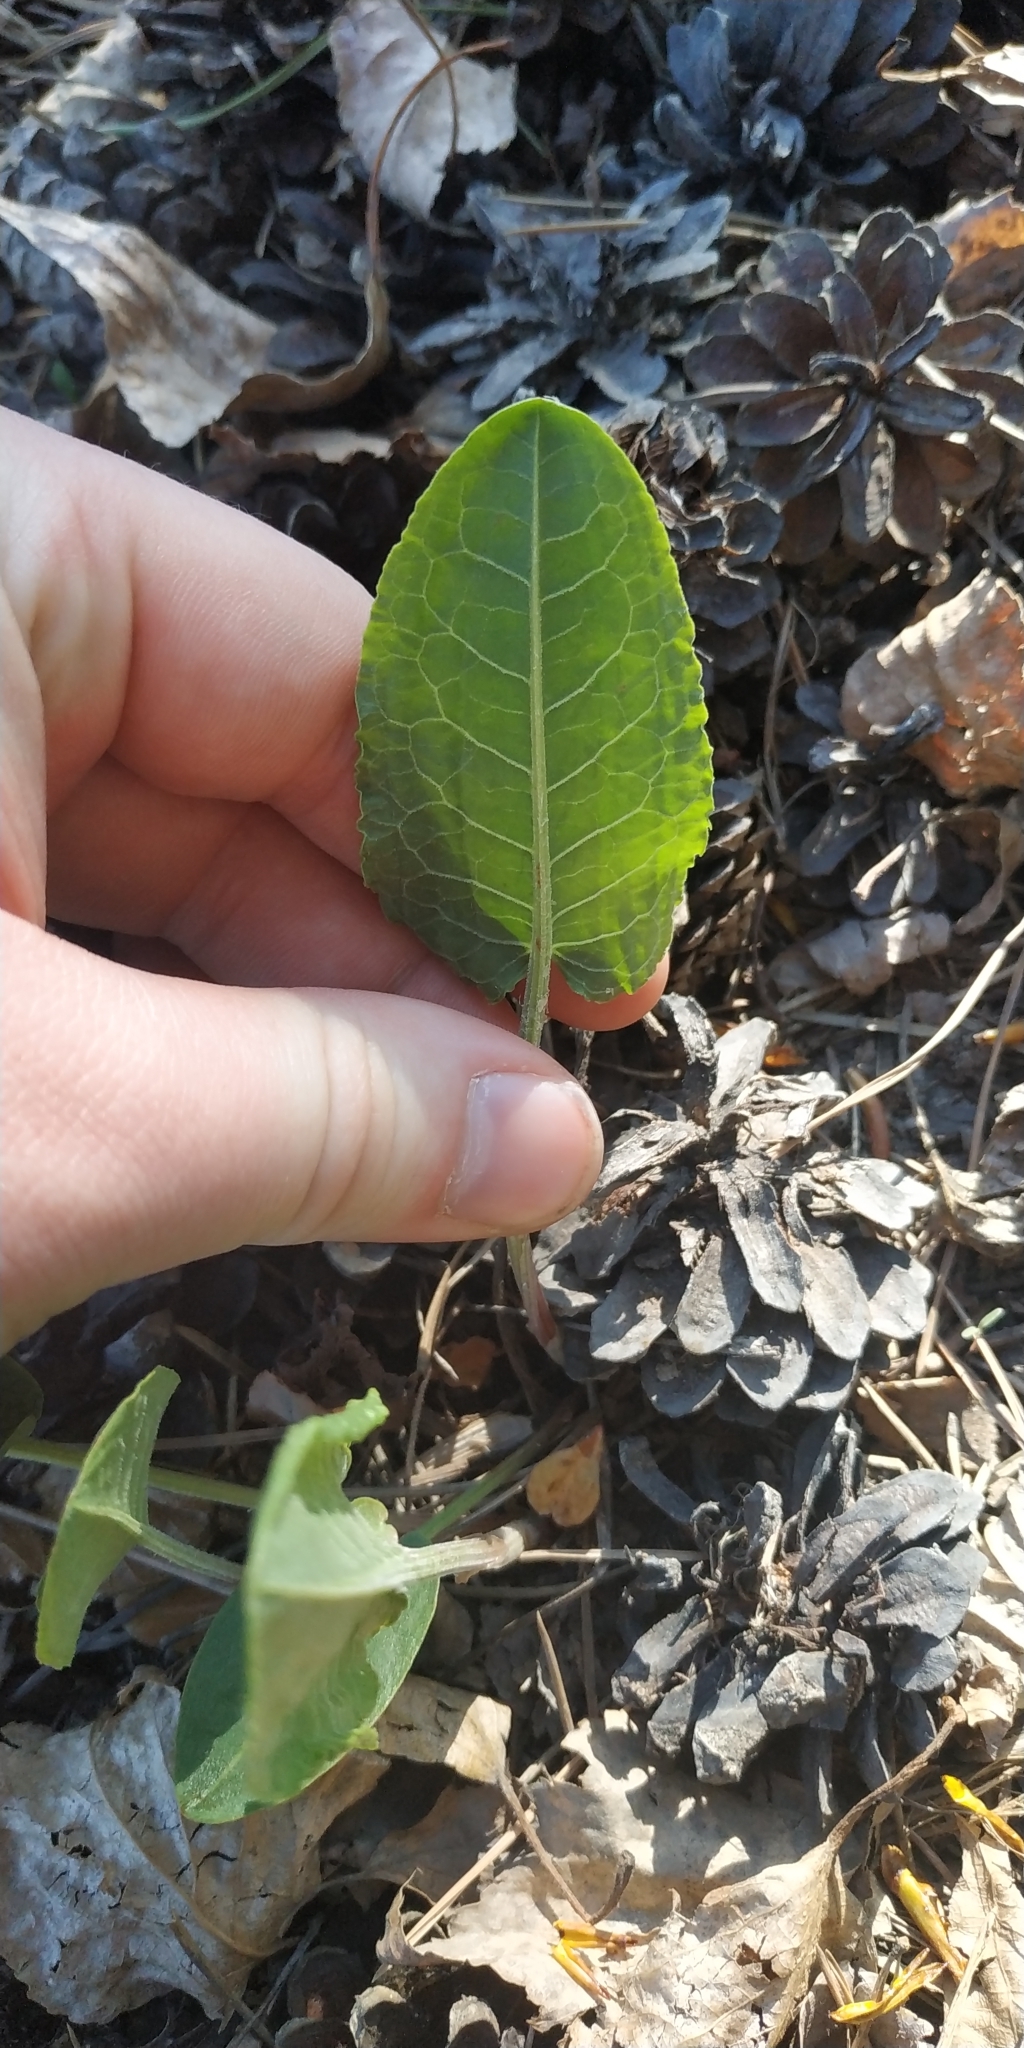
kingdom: Plantae
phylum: Tracheophyta
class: Magnoliopsida
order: Caryophyllales
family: Polygonaceae
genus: Rumex
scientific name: Rumex thyrsiflorus
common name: Garden sorrel
